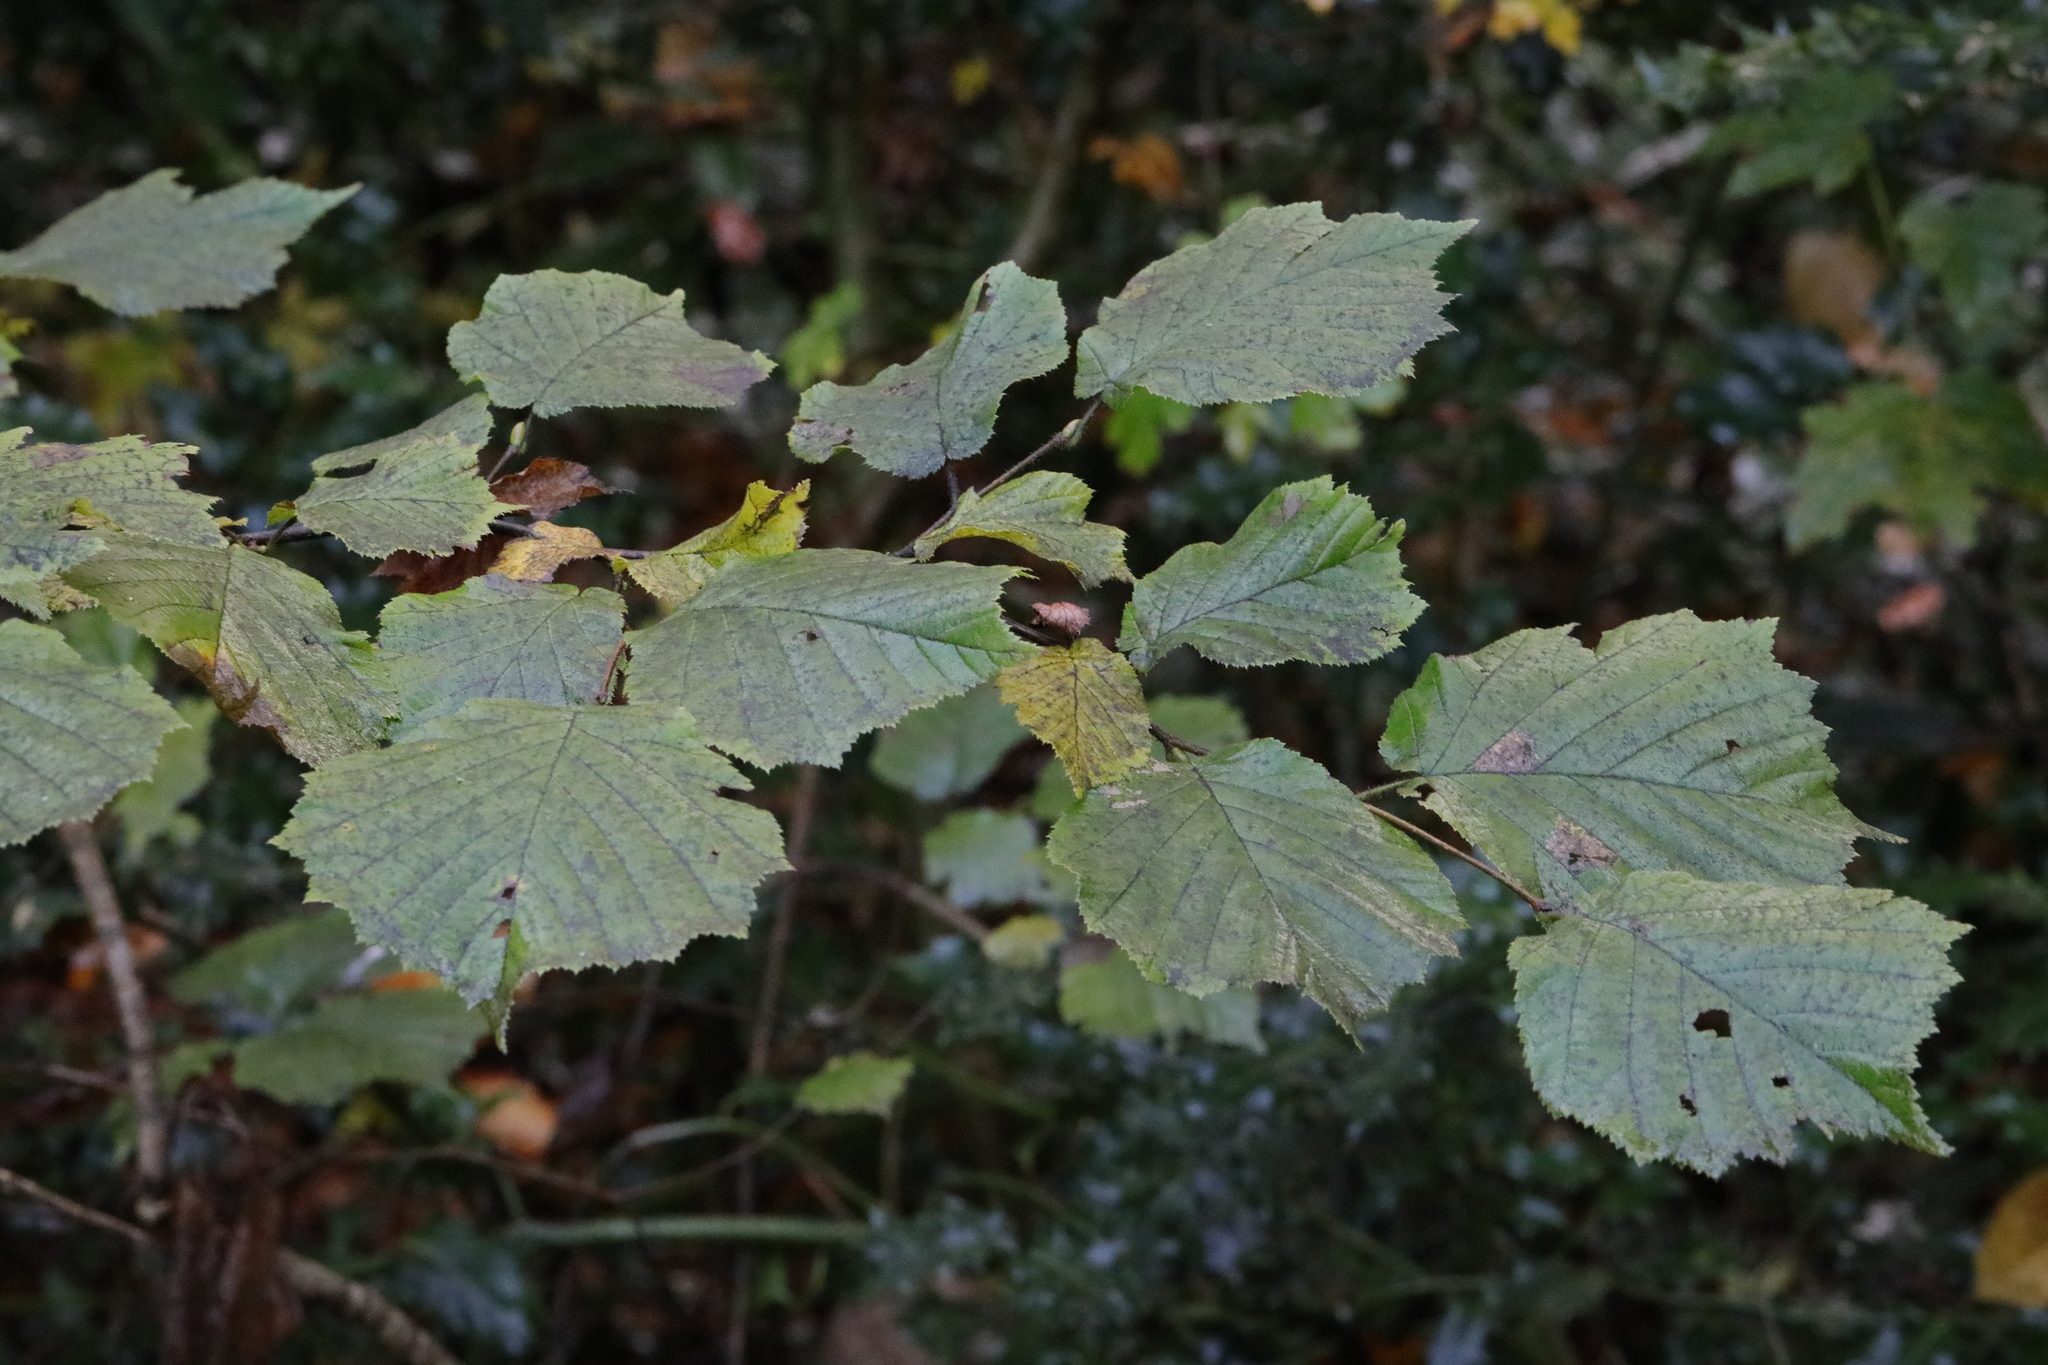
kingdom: Plantae
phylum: Tracheophyta
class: Magnoliopsida
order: Fagales
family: Betulaceae
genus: Corylus
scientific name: Corylus avellana
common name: European hazel
